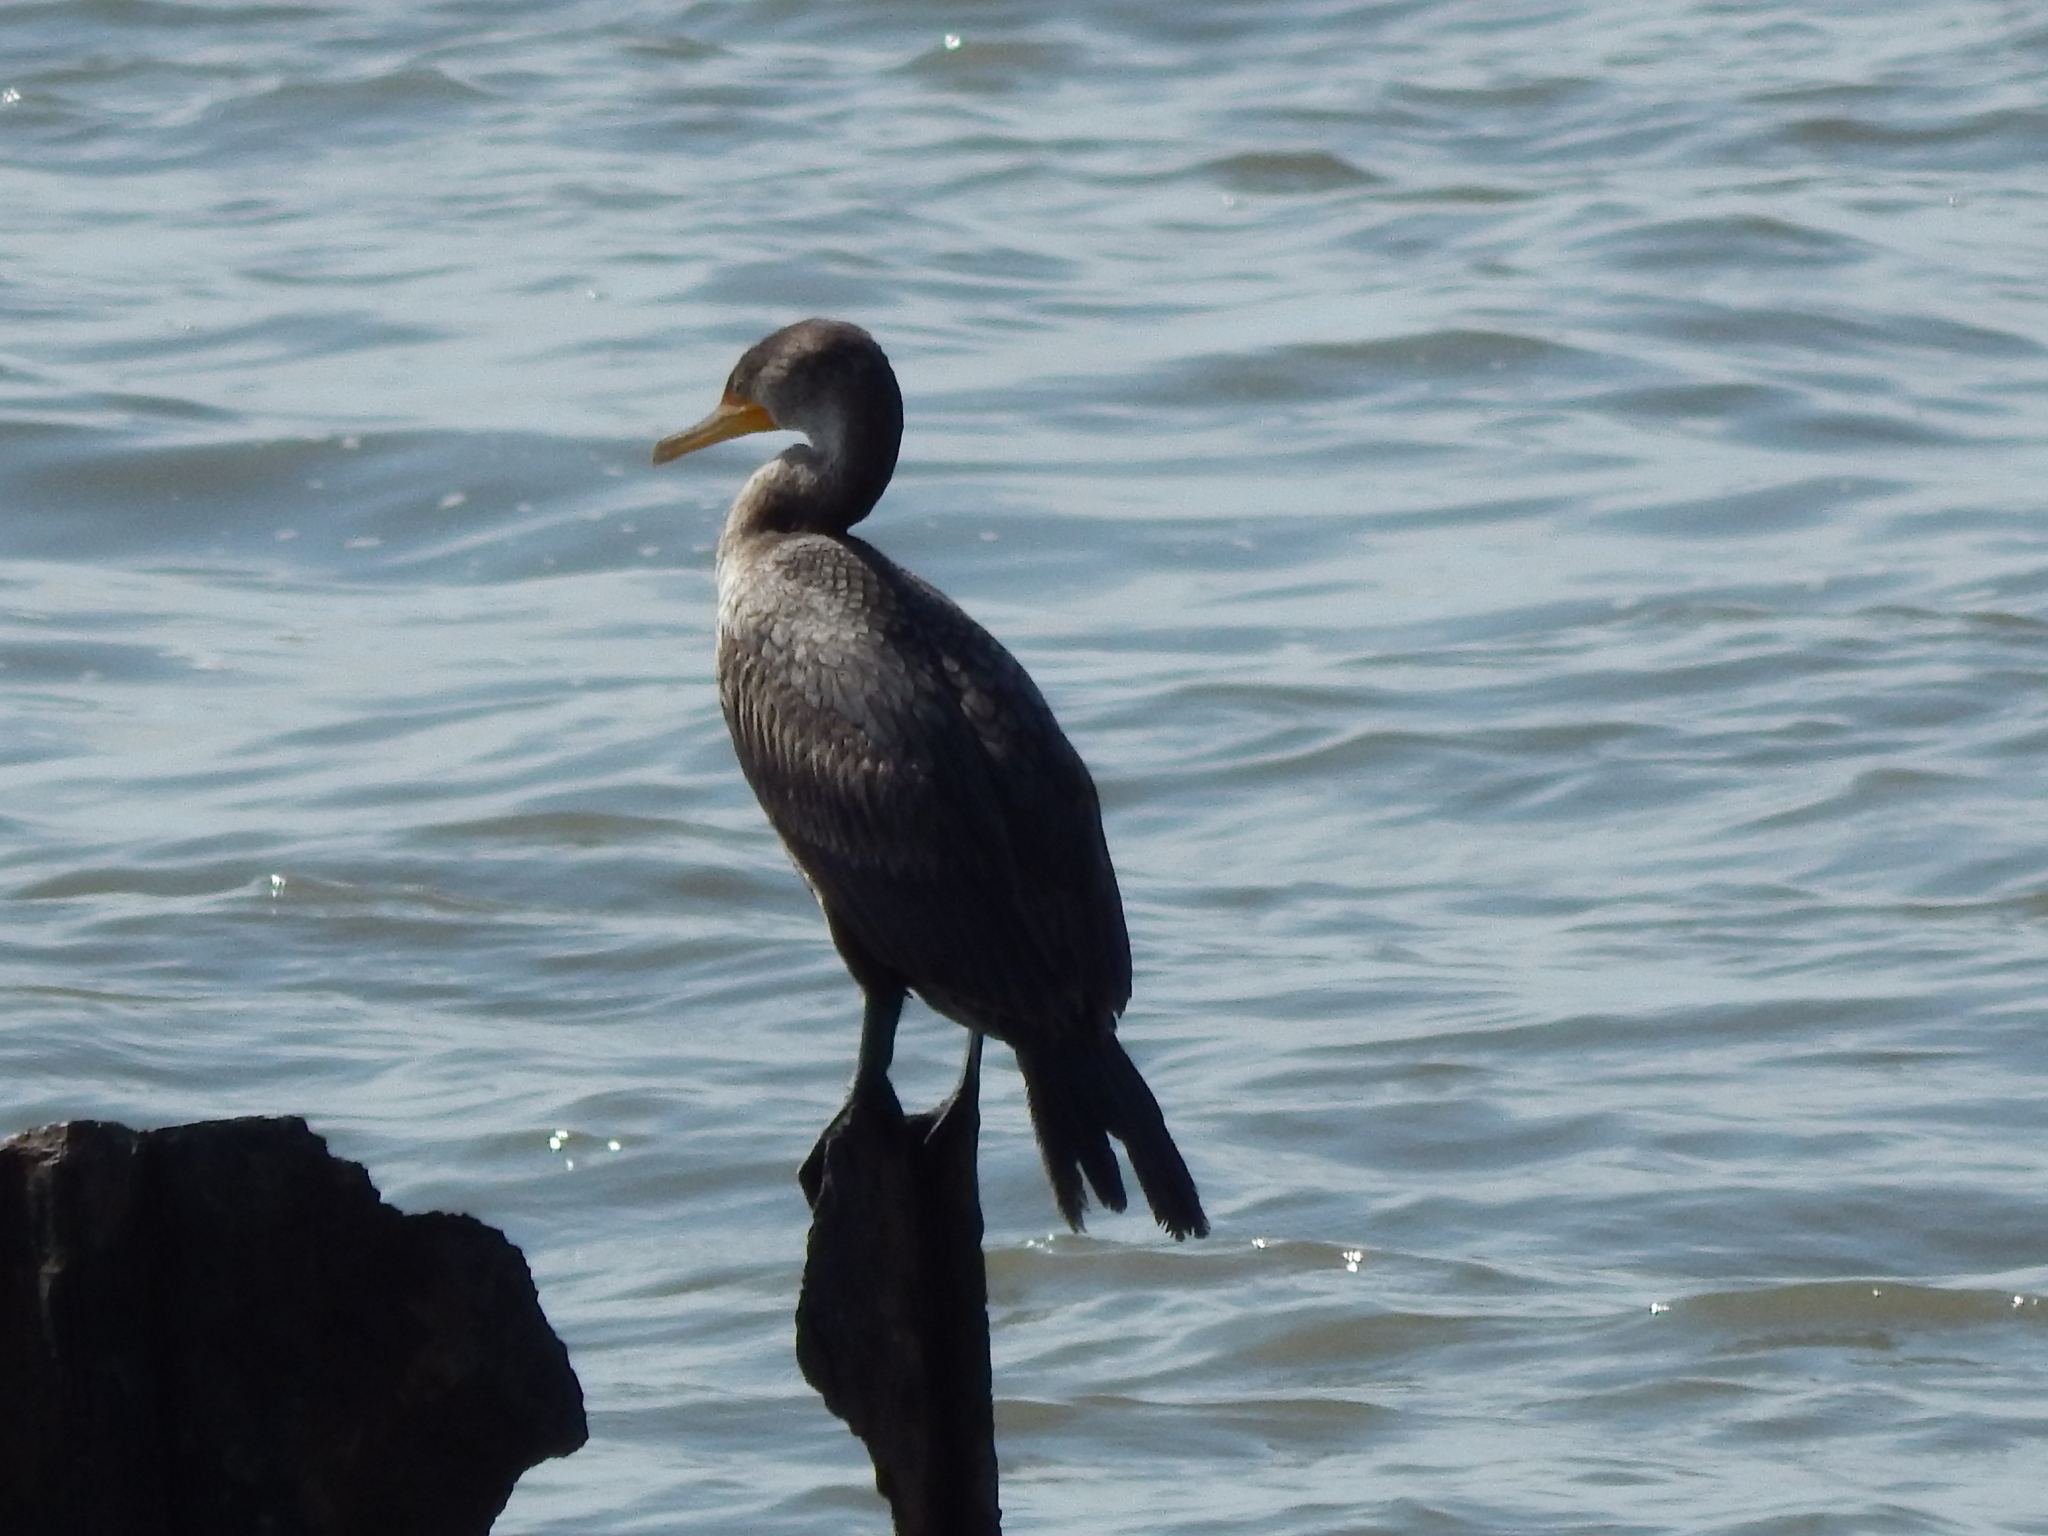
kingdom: Animalia
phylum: Chordata
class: Aves
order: Suliformes
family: Phalacrocoracidae
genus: Phalacrocorax
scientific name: Phalacrocorax auritus
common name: Double-crested cormorant
